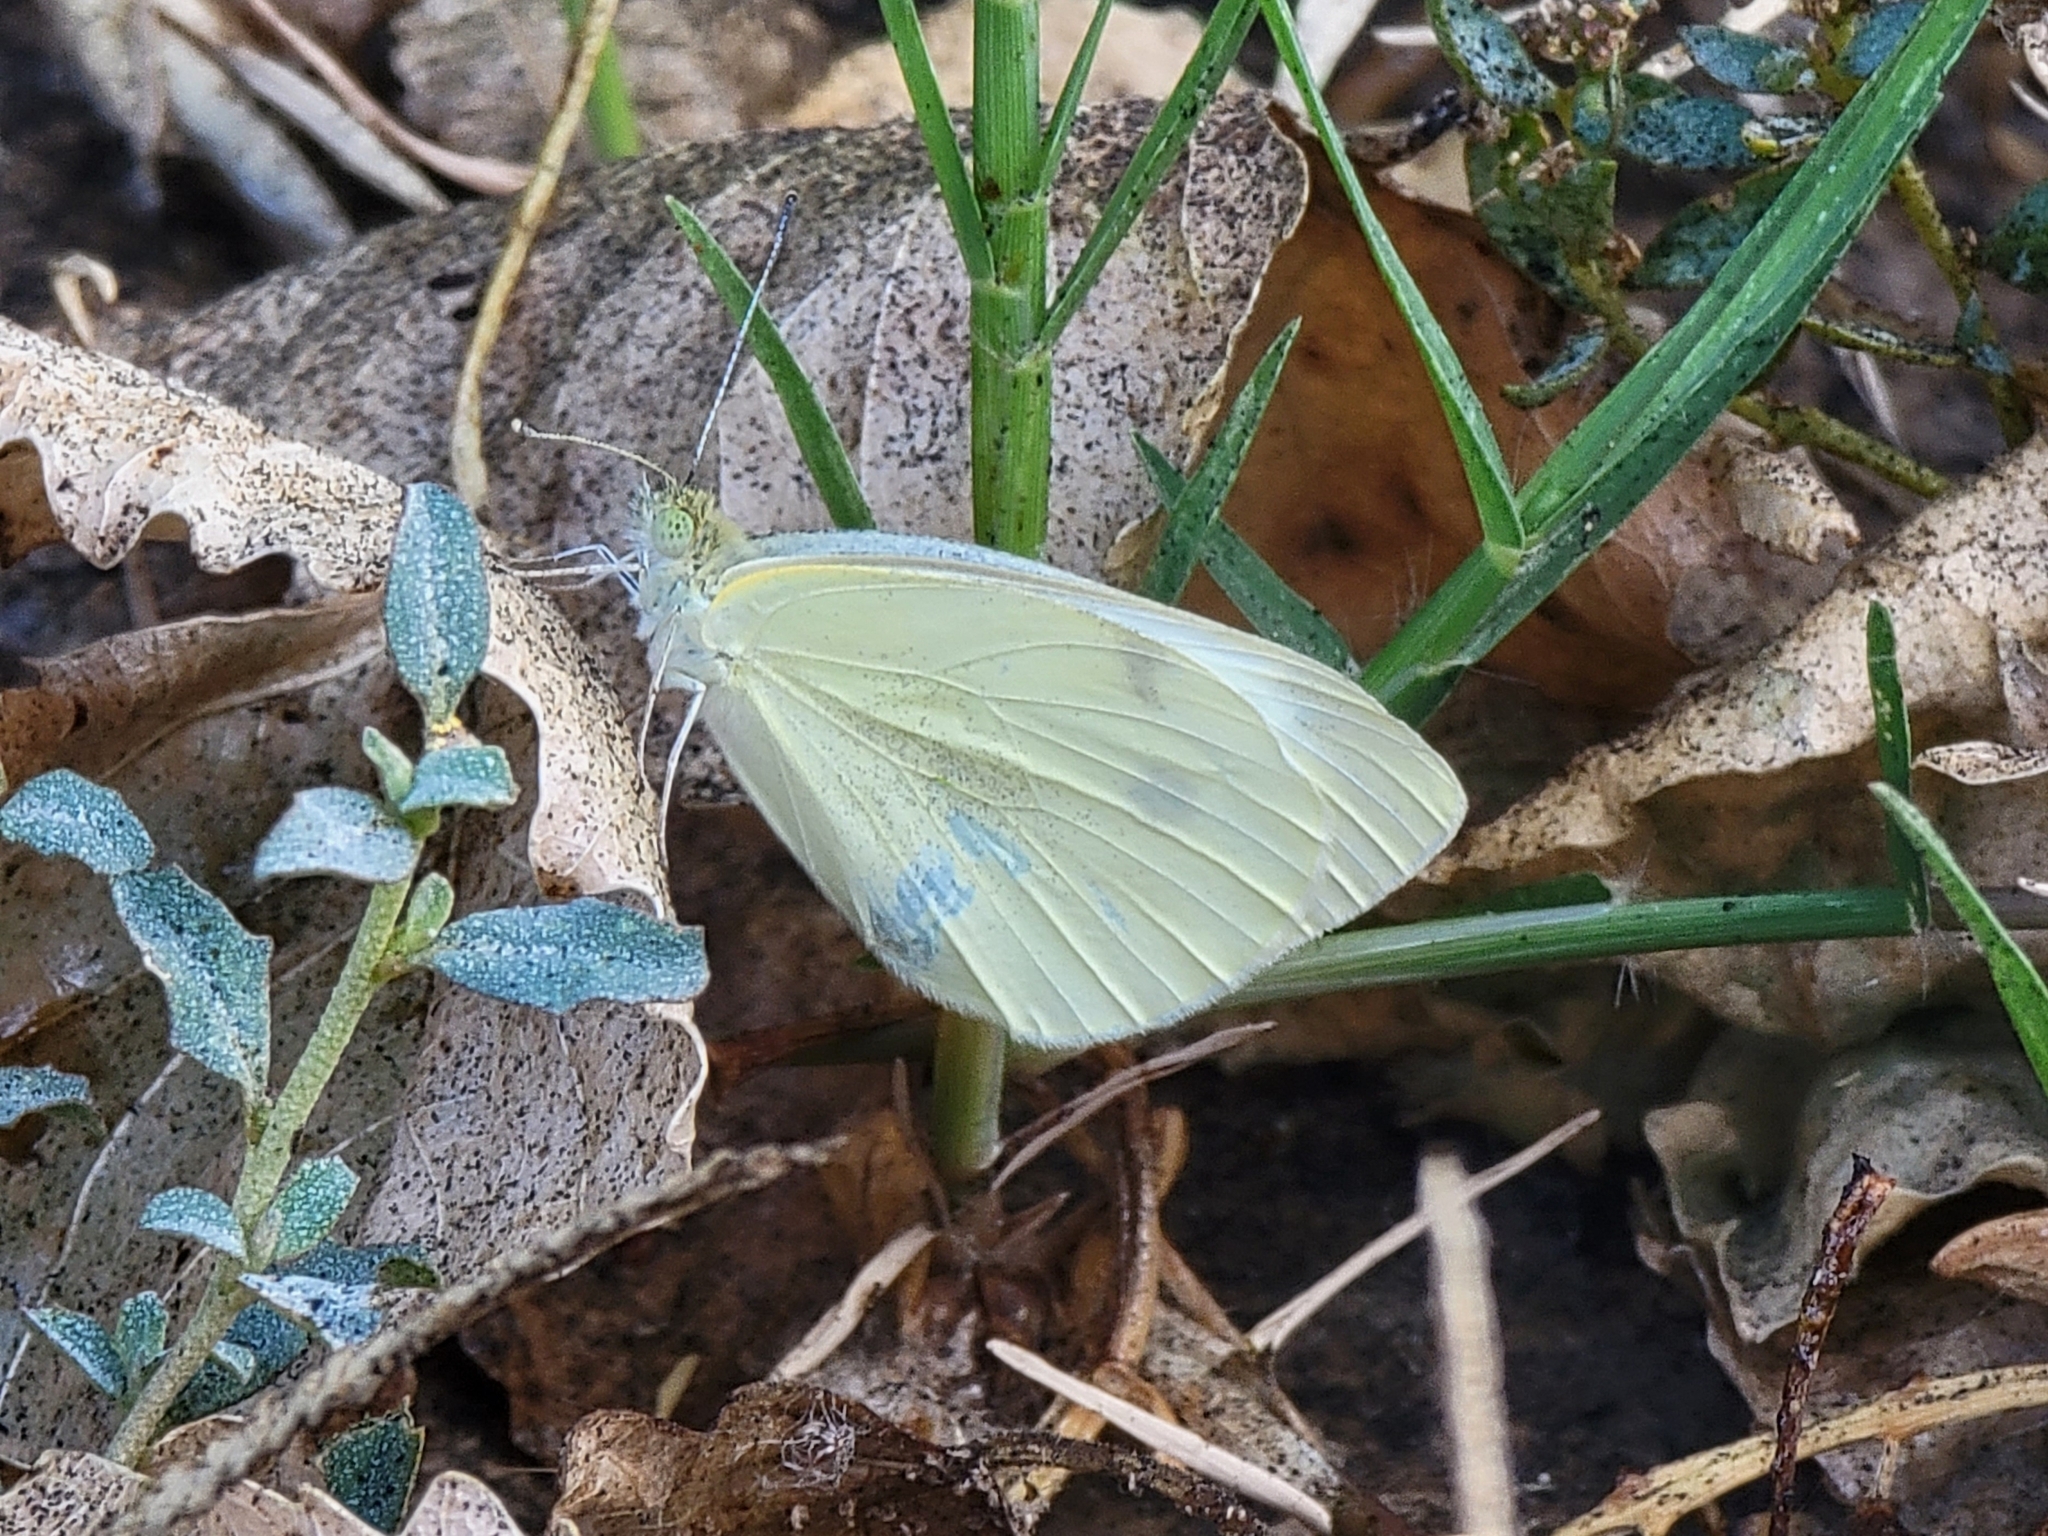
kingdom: Animalia
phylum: Arthropoda
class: Insecta
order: Lepidoptera
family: Pieridae
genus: Pieris
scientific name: Pieris rapae
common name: Small white
